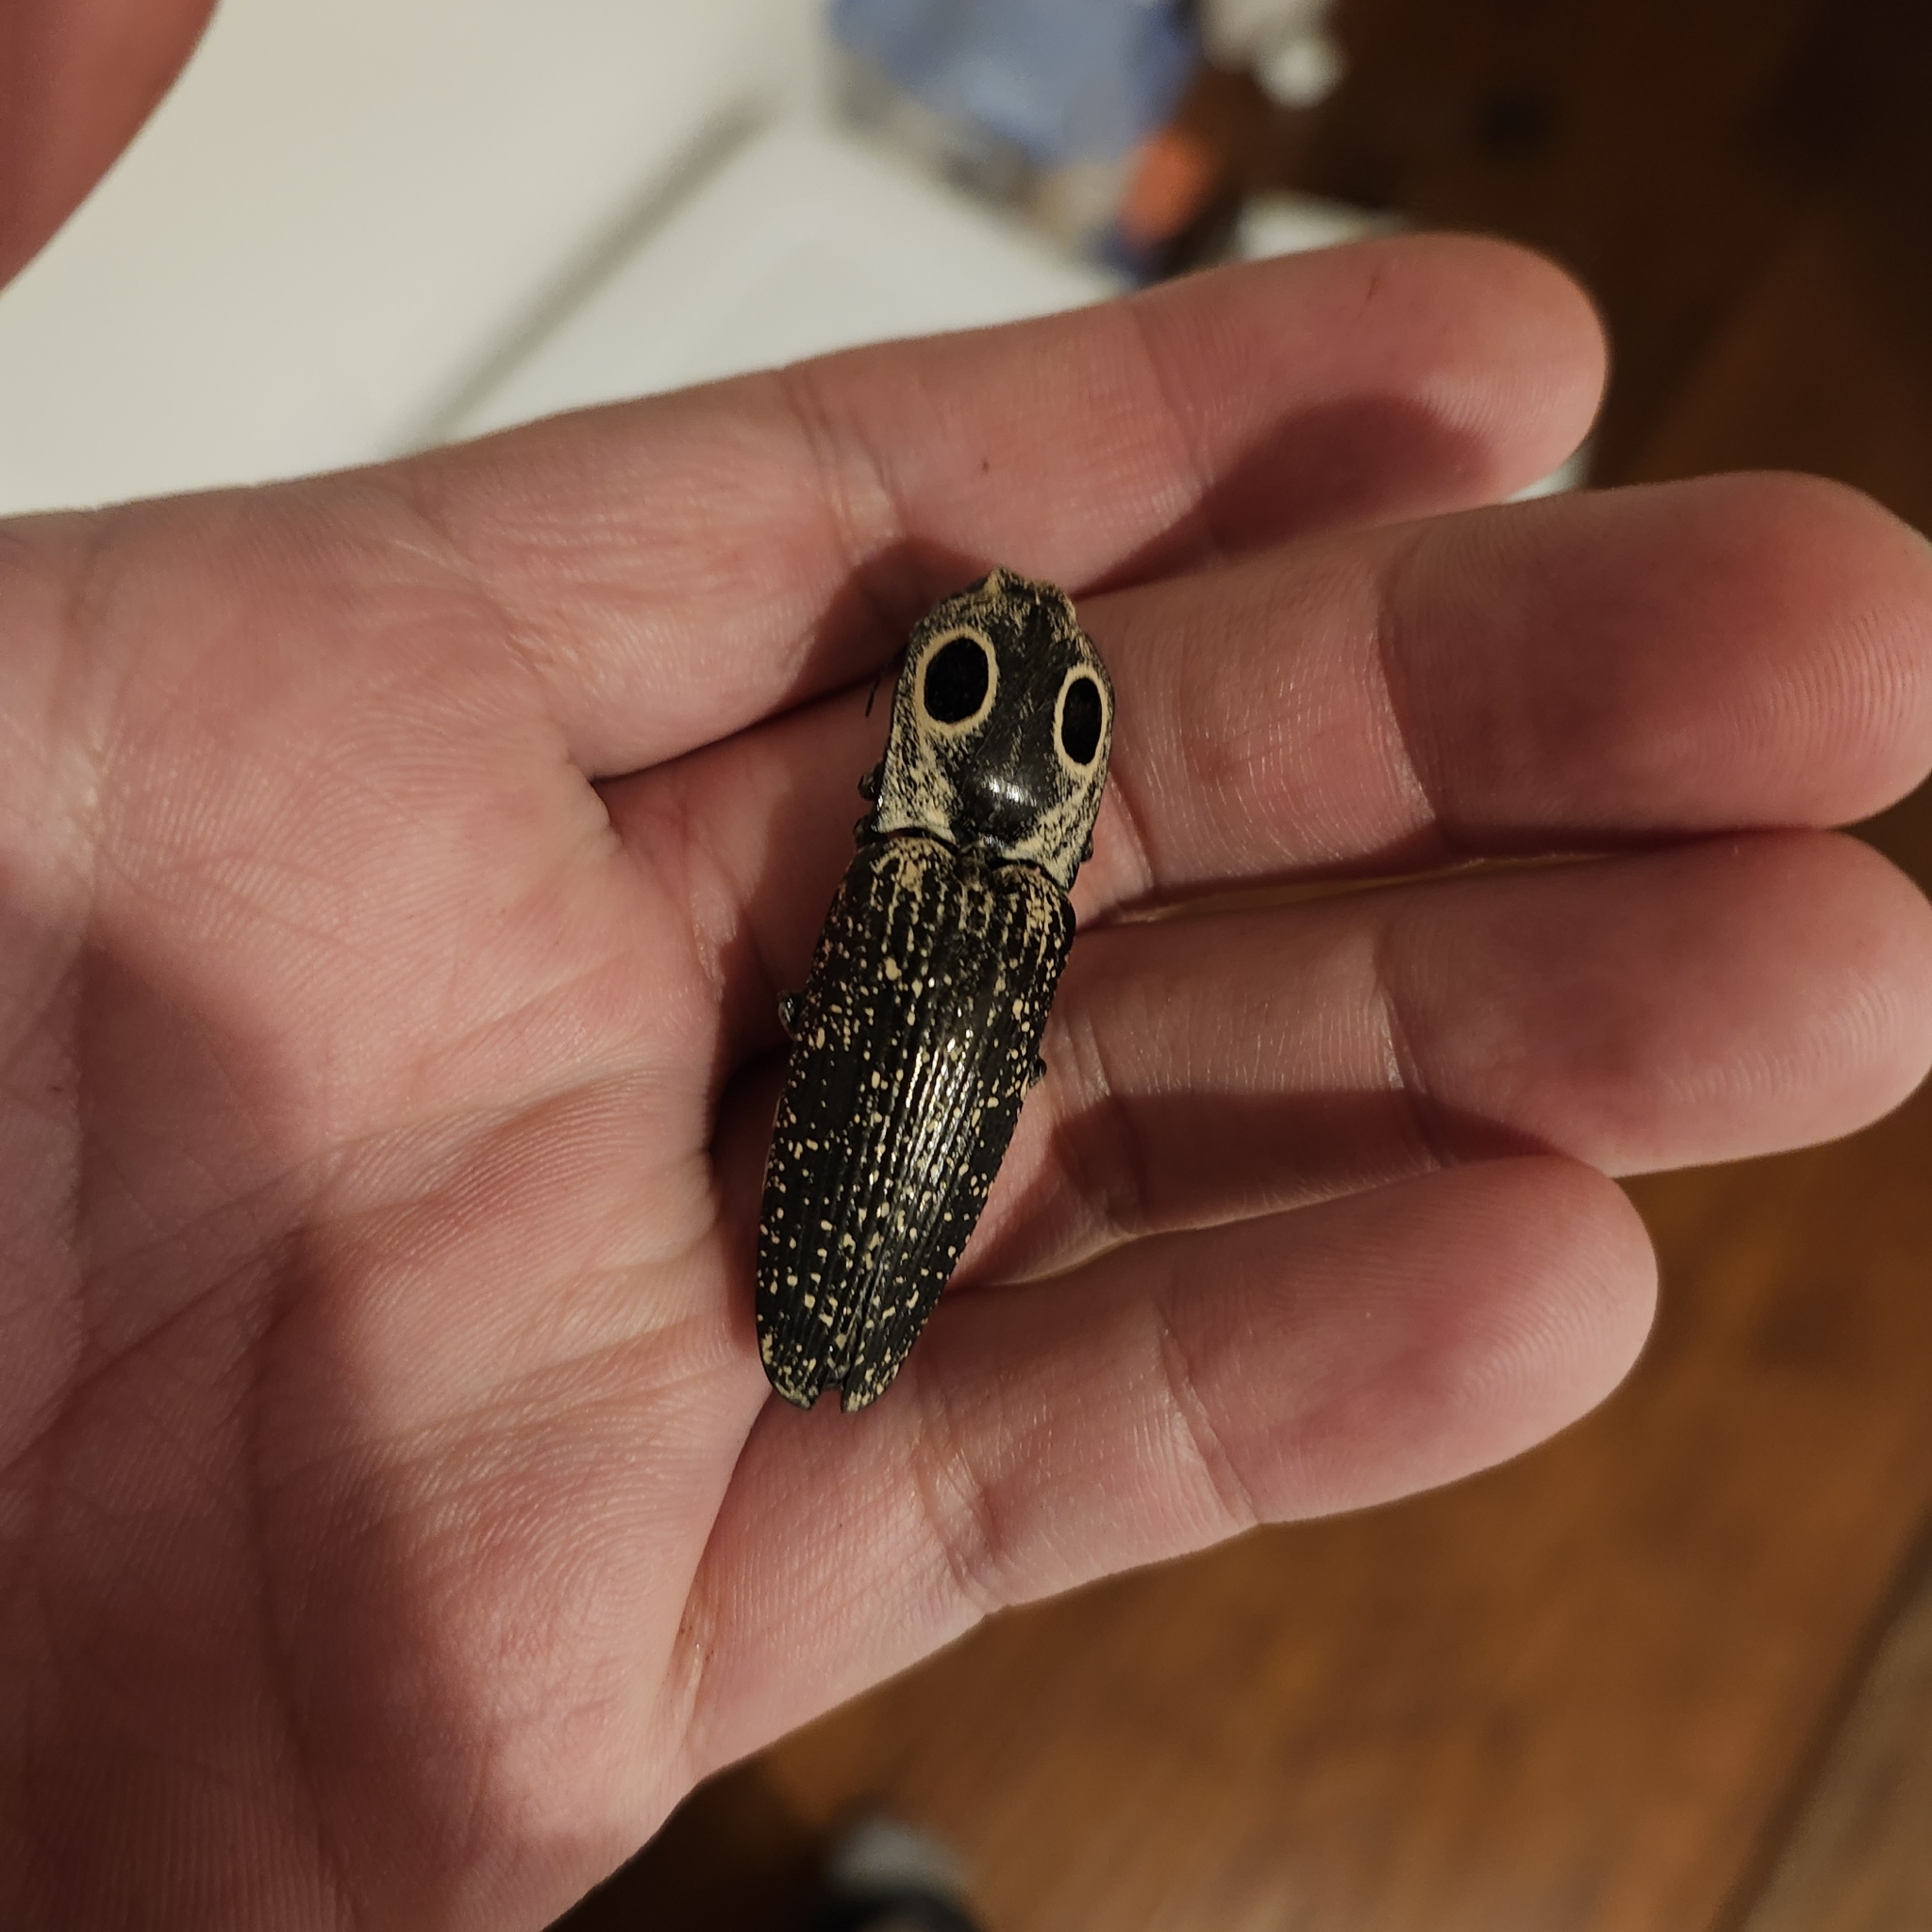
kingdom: Animalia
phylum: Arthropoda
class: Insecta
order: Coleoptera
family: Elateridae
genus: Alaus
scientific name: Alaus oculatus
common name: Eastern eyed click beetle
